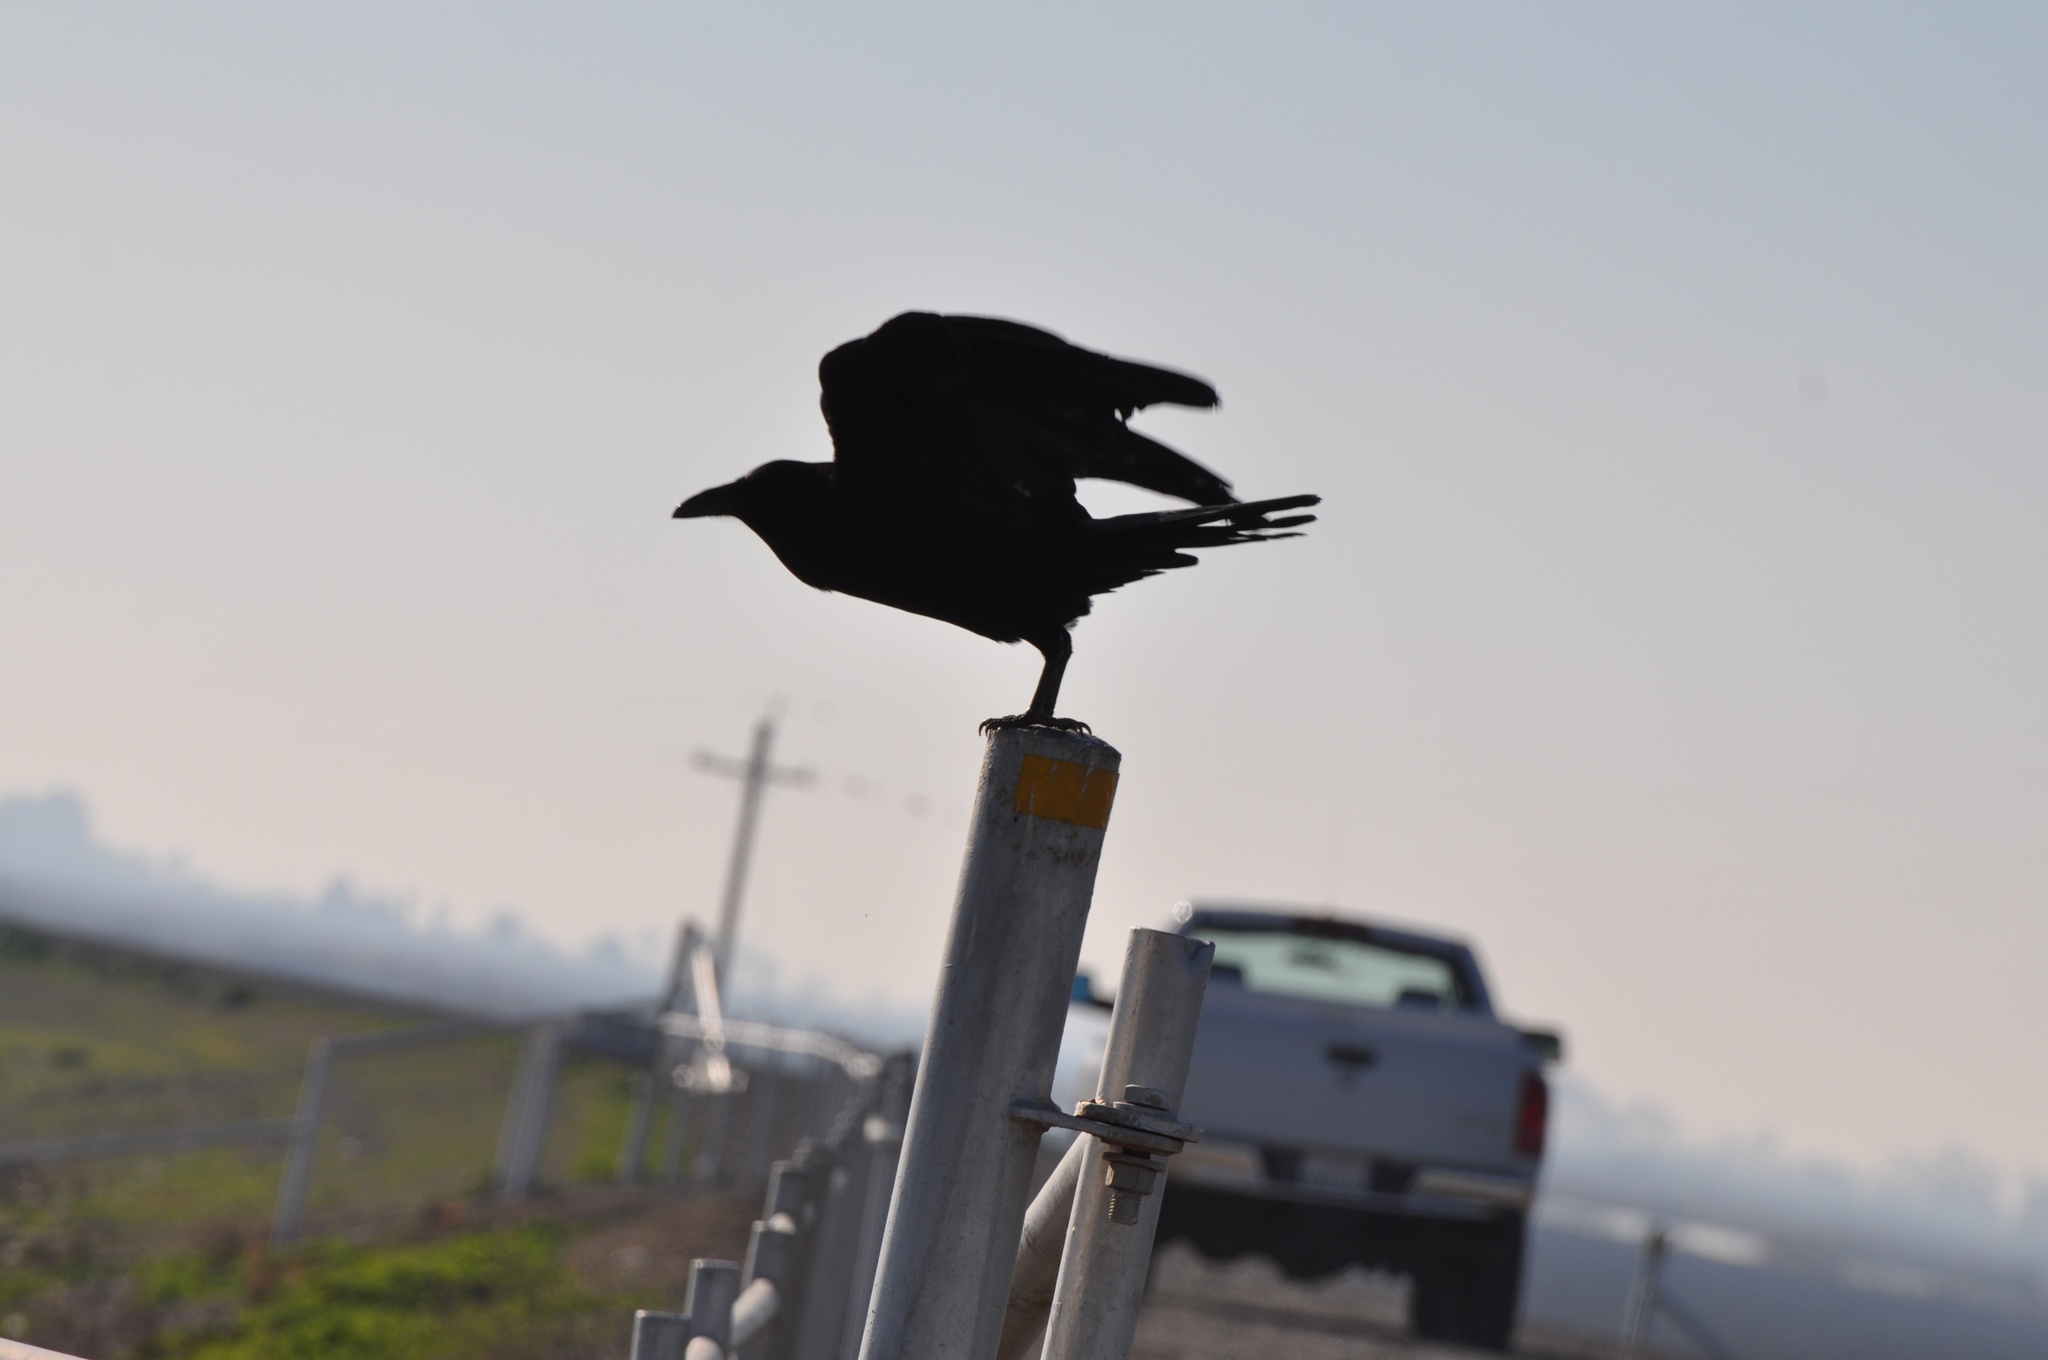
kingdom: Animalia
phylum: Chordata
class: Aves
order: Passeriformes
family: Corvidae
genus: Corvus
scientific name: Corvus corax
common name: Common raven
